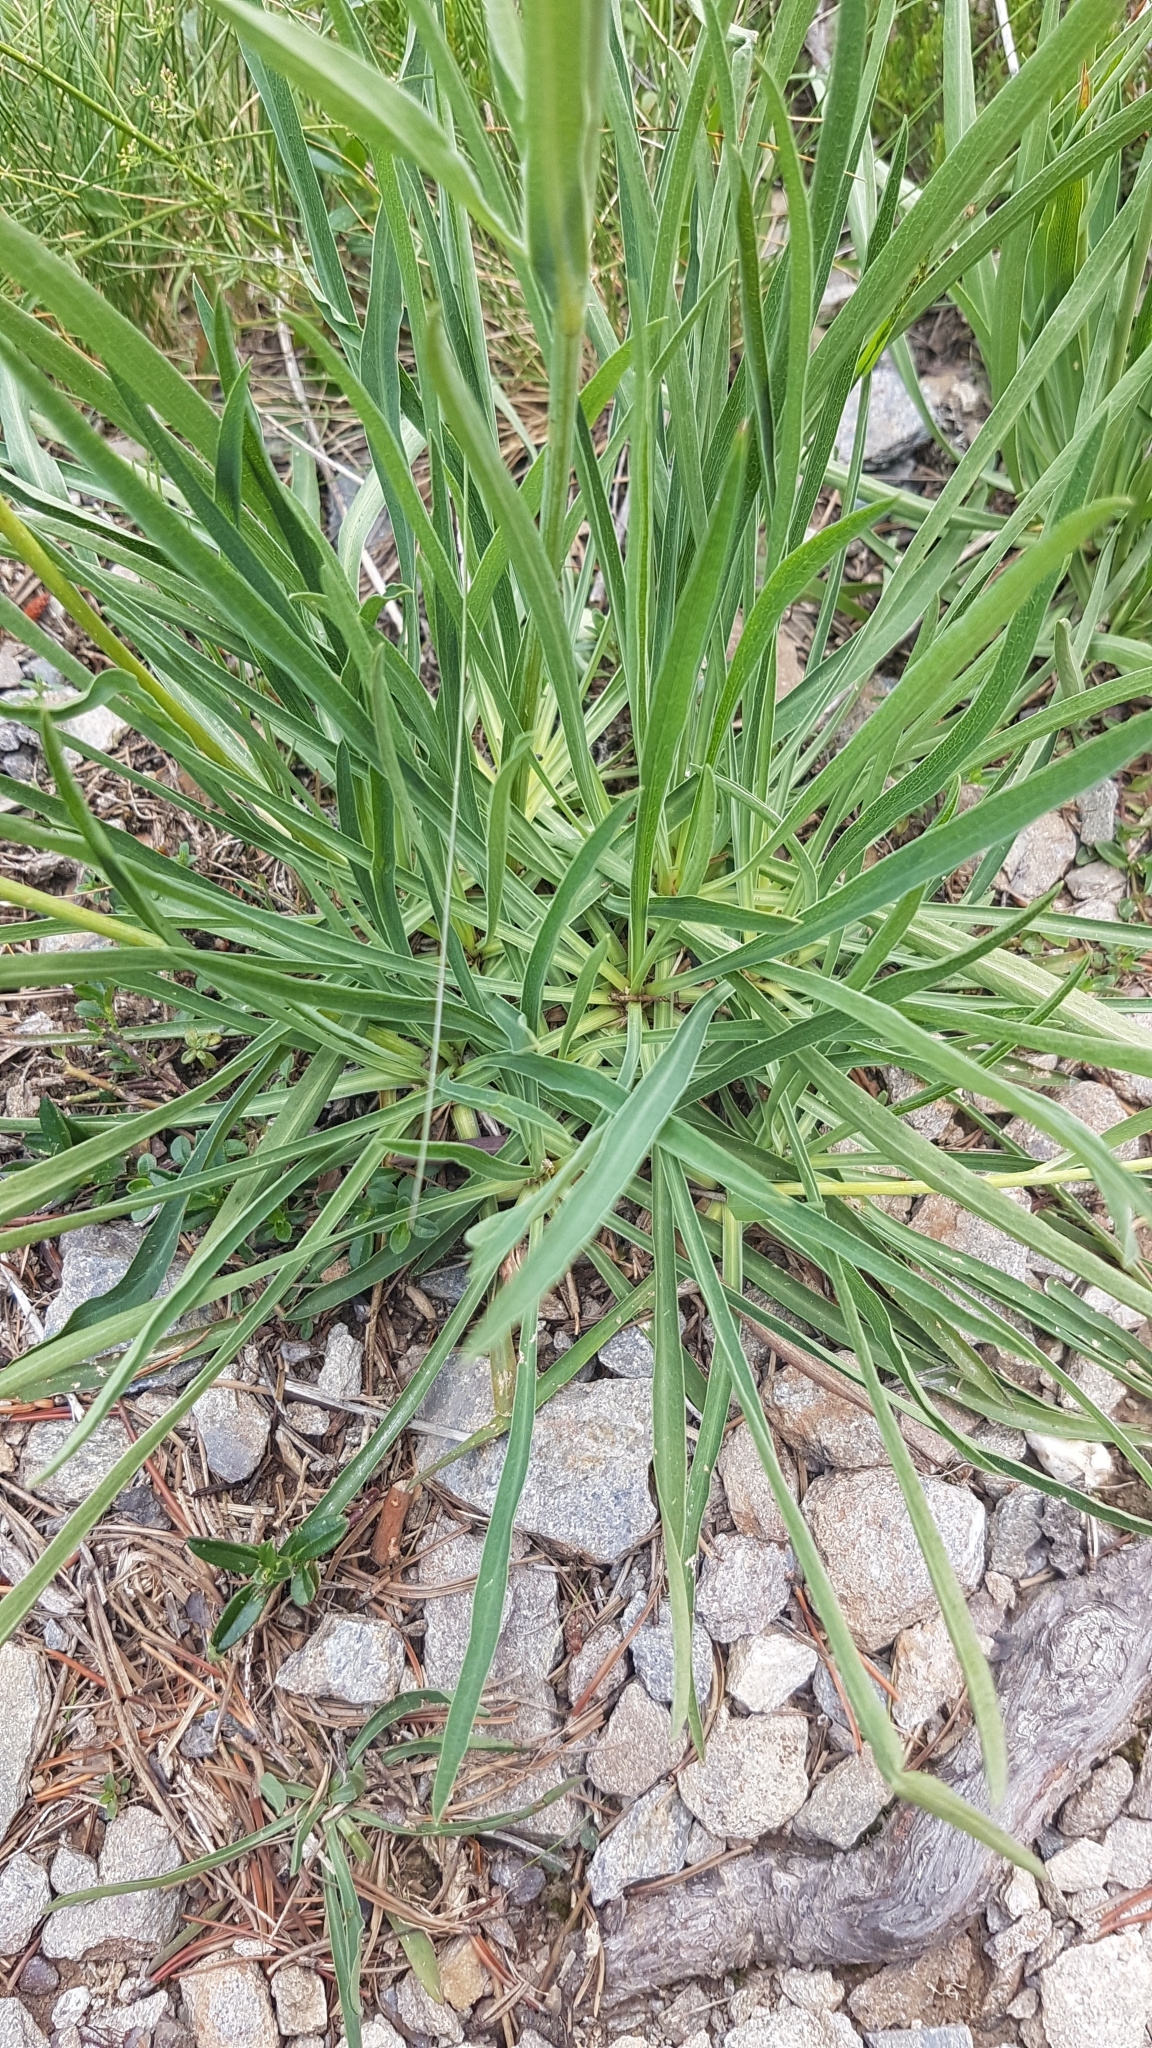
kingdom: Plantae
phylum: Tracheophyta
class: Magnoliopsida
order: Apiales
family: Apiaceae
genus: Bupleurum
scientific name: Bupleurum stellatum
